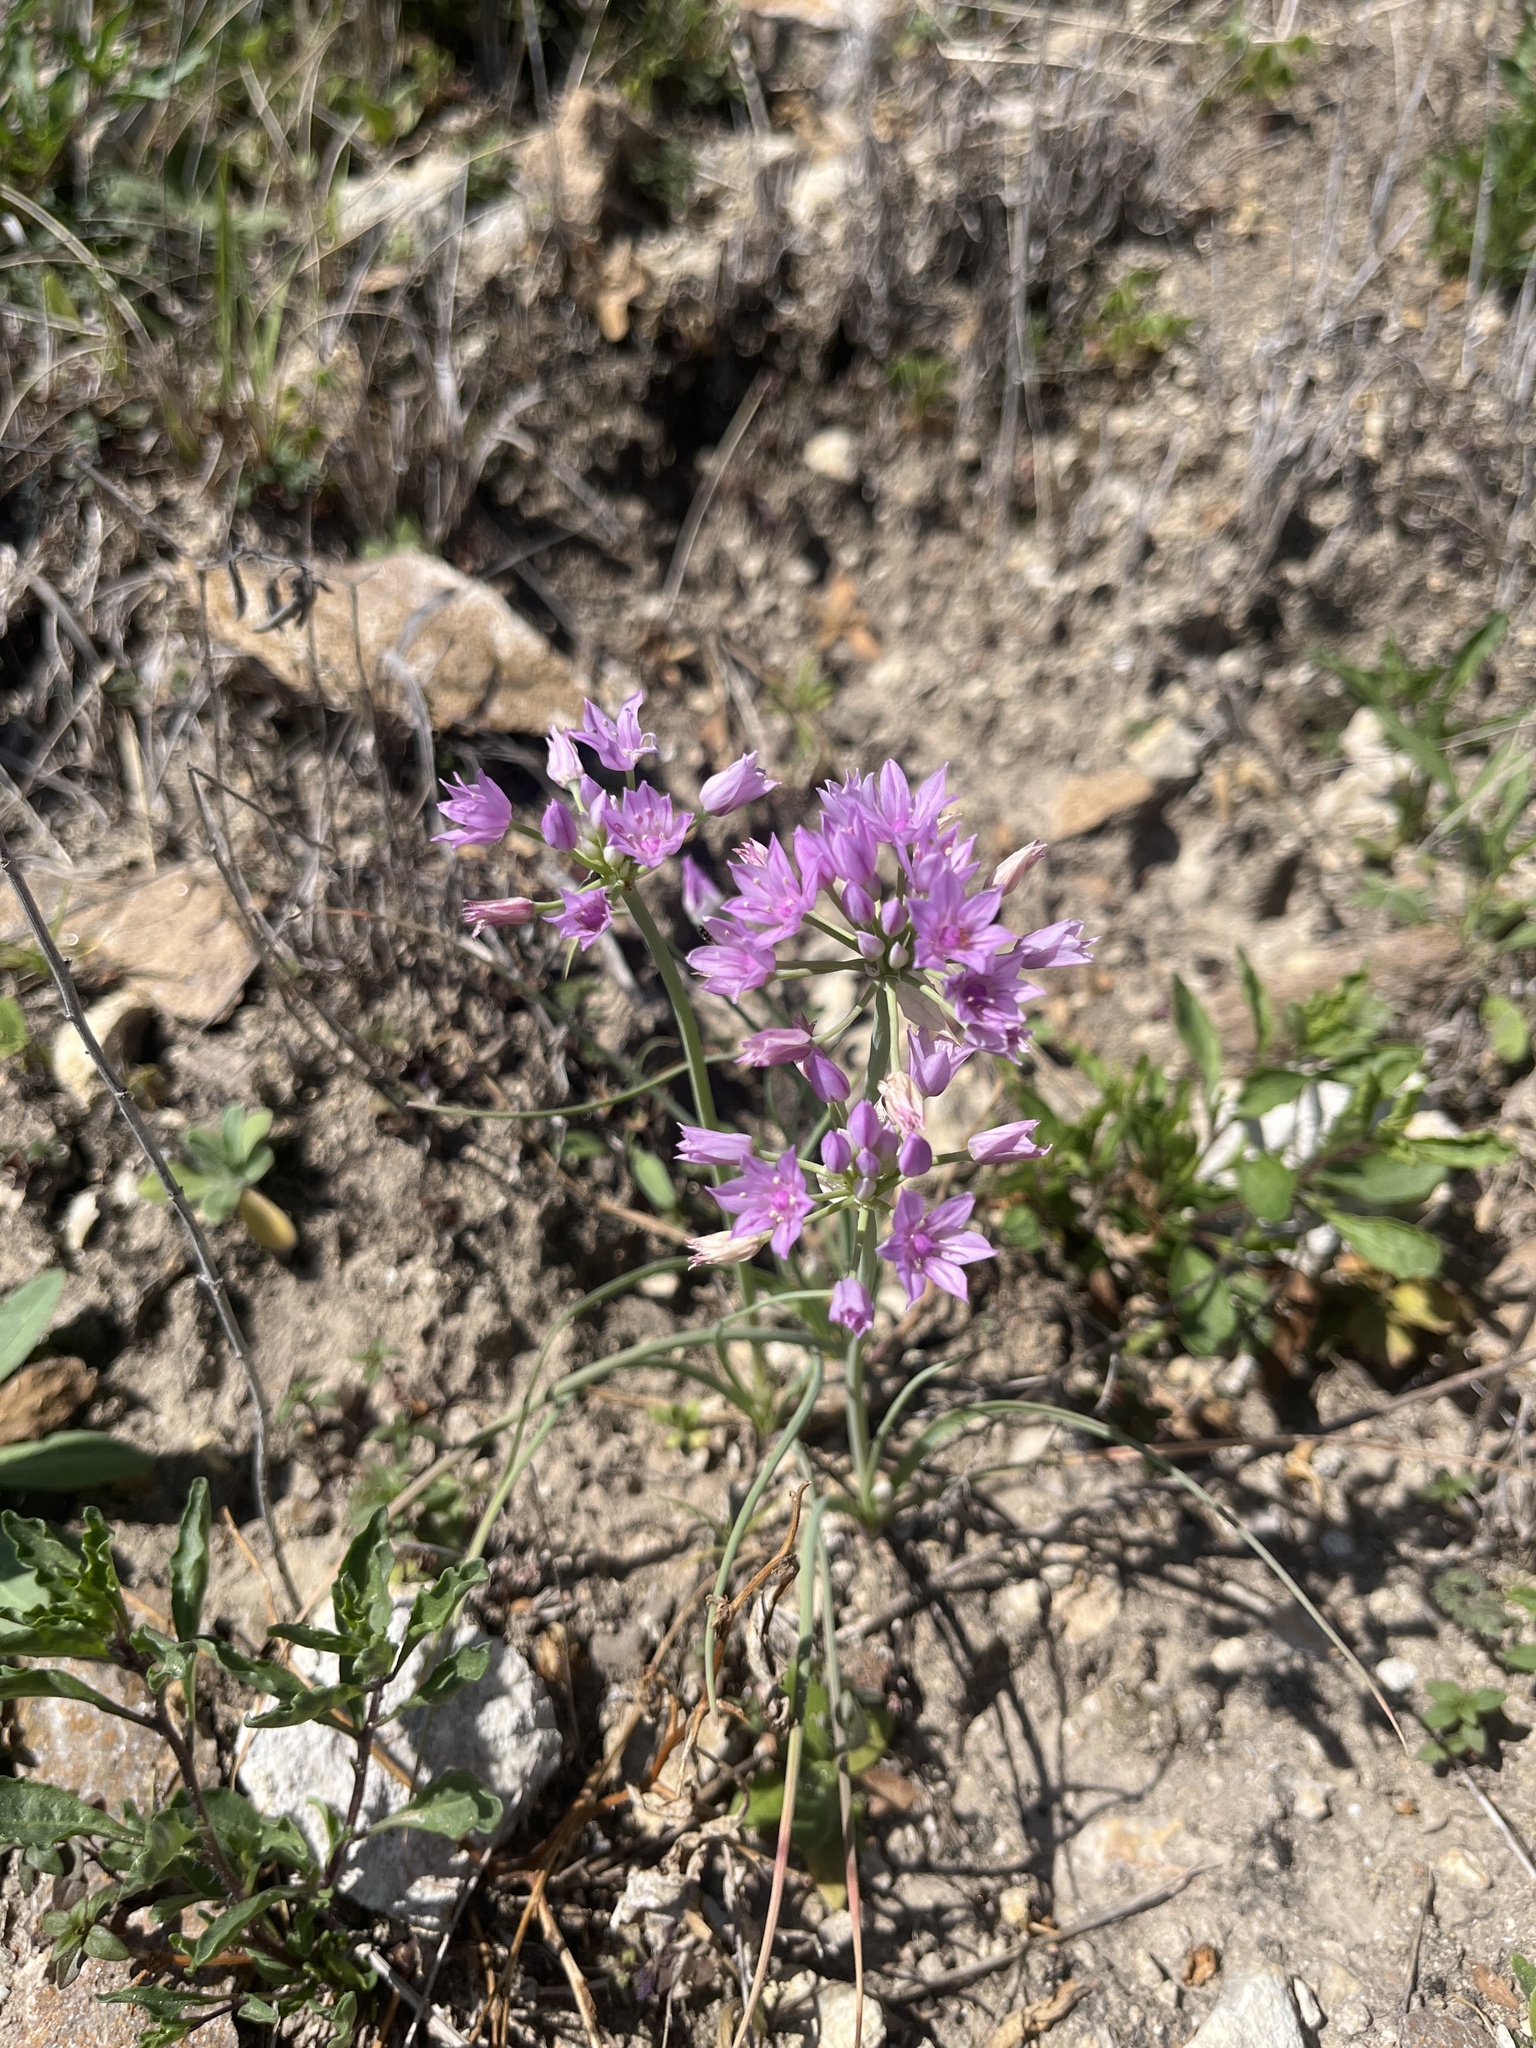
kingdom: Plantae
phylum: Tracheophyta
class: Liliopsida
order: Asparagales
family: Amaryllidaceae
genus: Allium
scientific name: Allium drummondii
